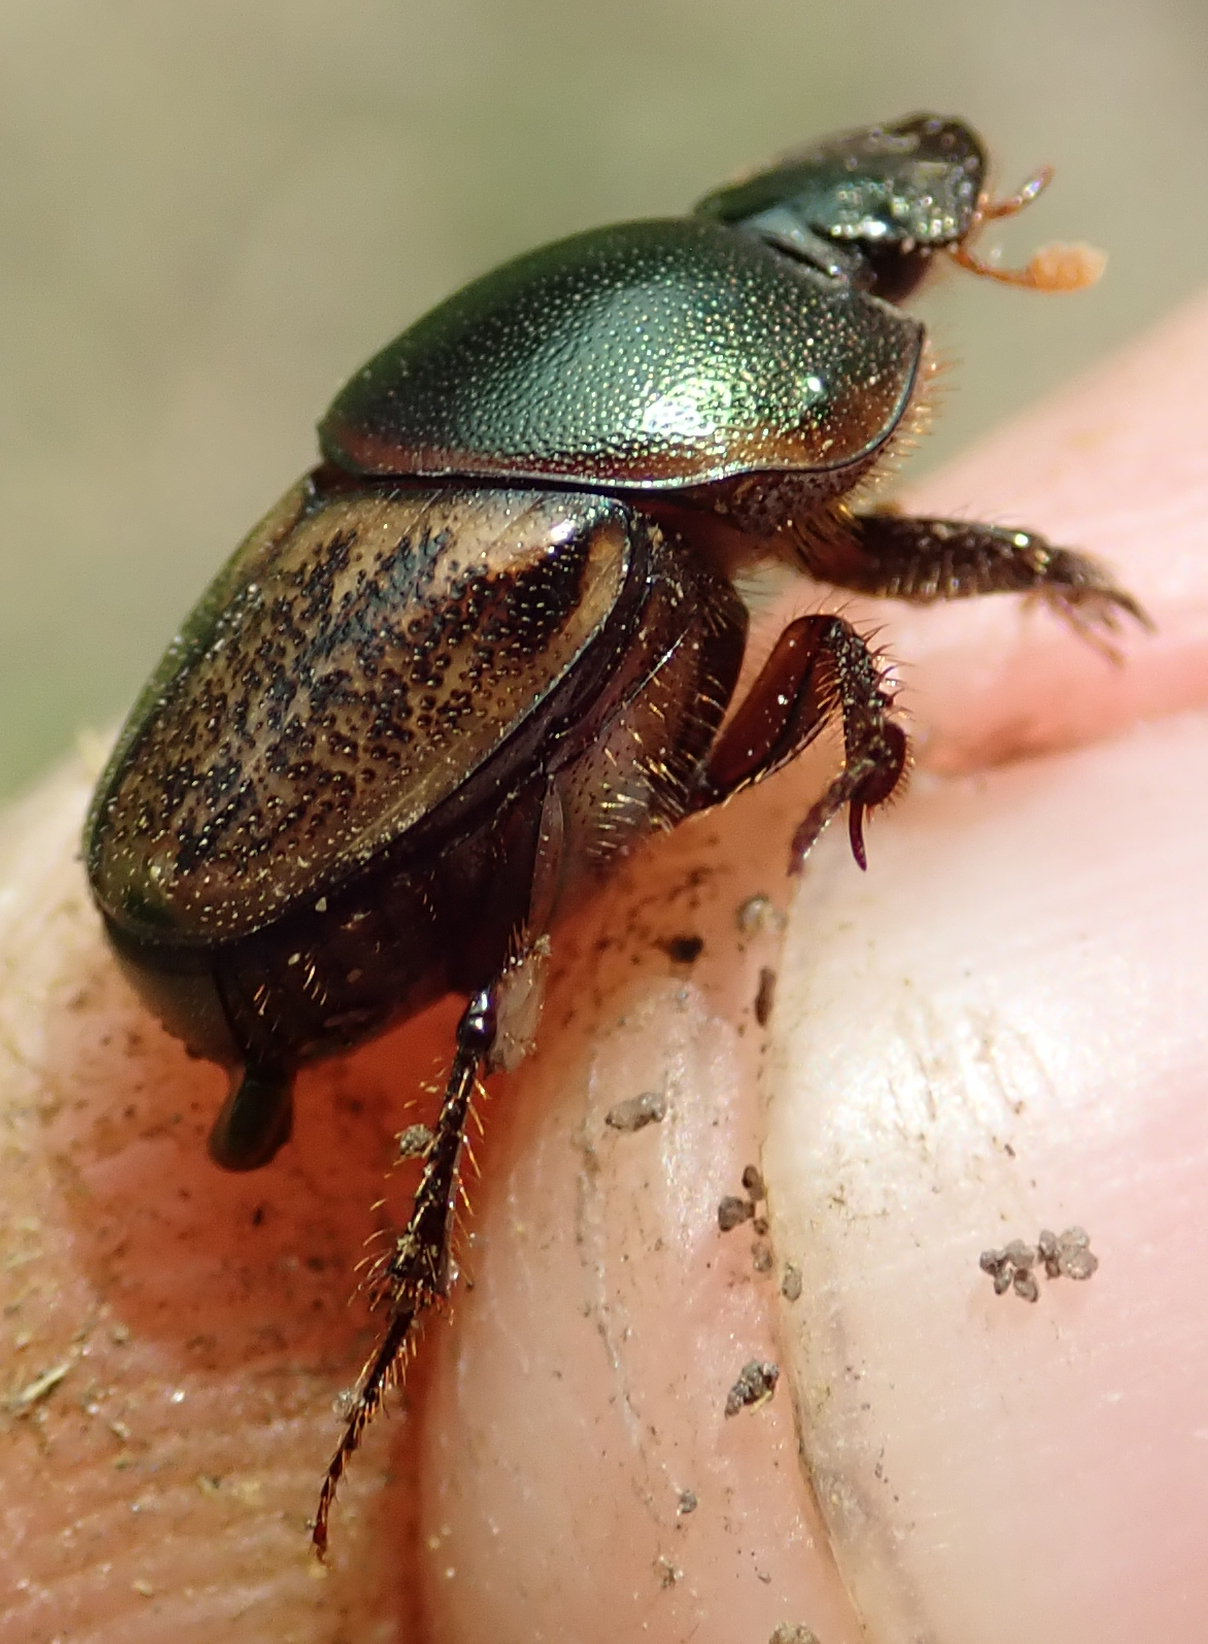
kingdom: Animalia
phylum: Arthropoda
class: Insecta
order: Coleoptera
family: Scarabaeidae
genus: Onthophagus
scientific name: Onthophagus plebejus
